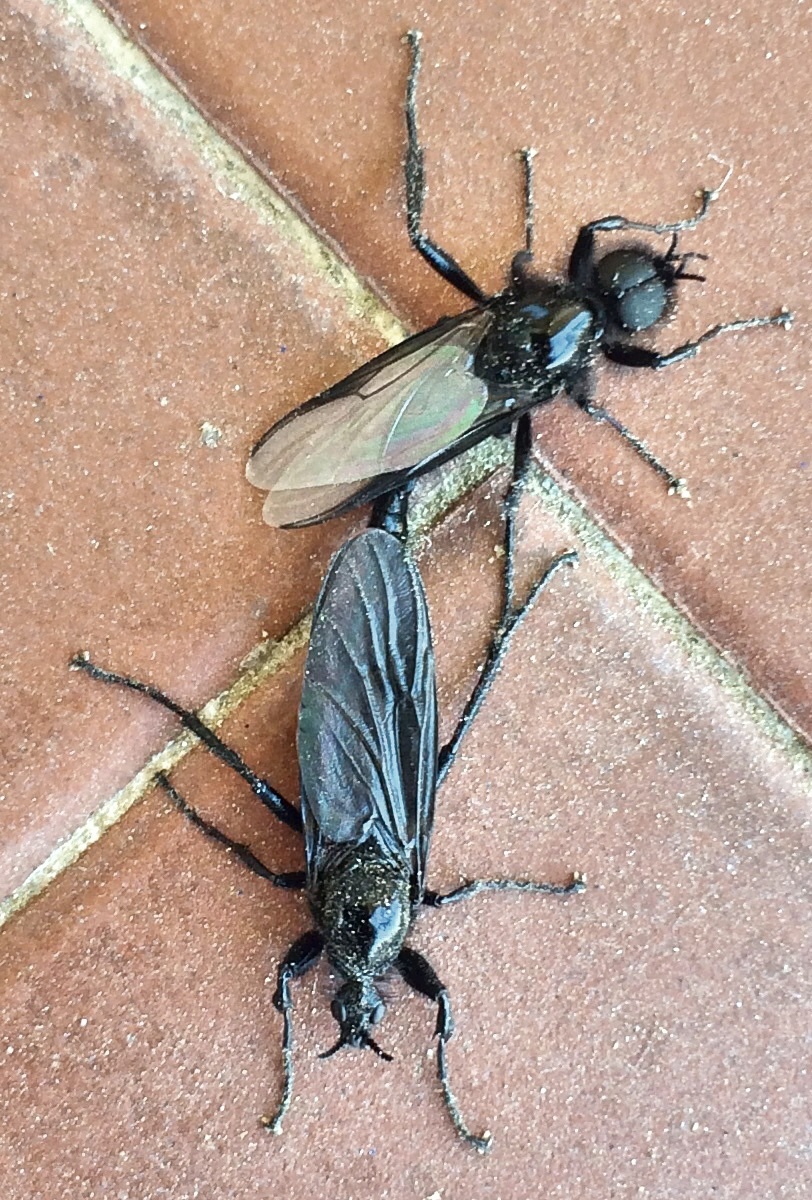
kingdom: Animalia
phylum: Arthropoda
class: Insecta
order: Diptera
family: Bibionidae
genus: Bibio
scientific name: Bibio marci
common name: St marks fly
